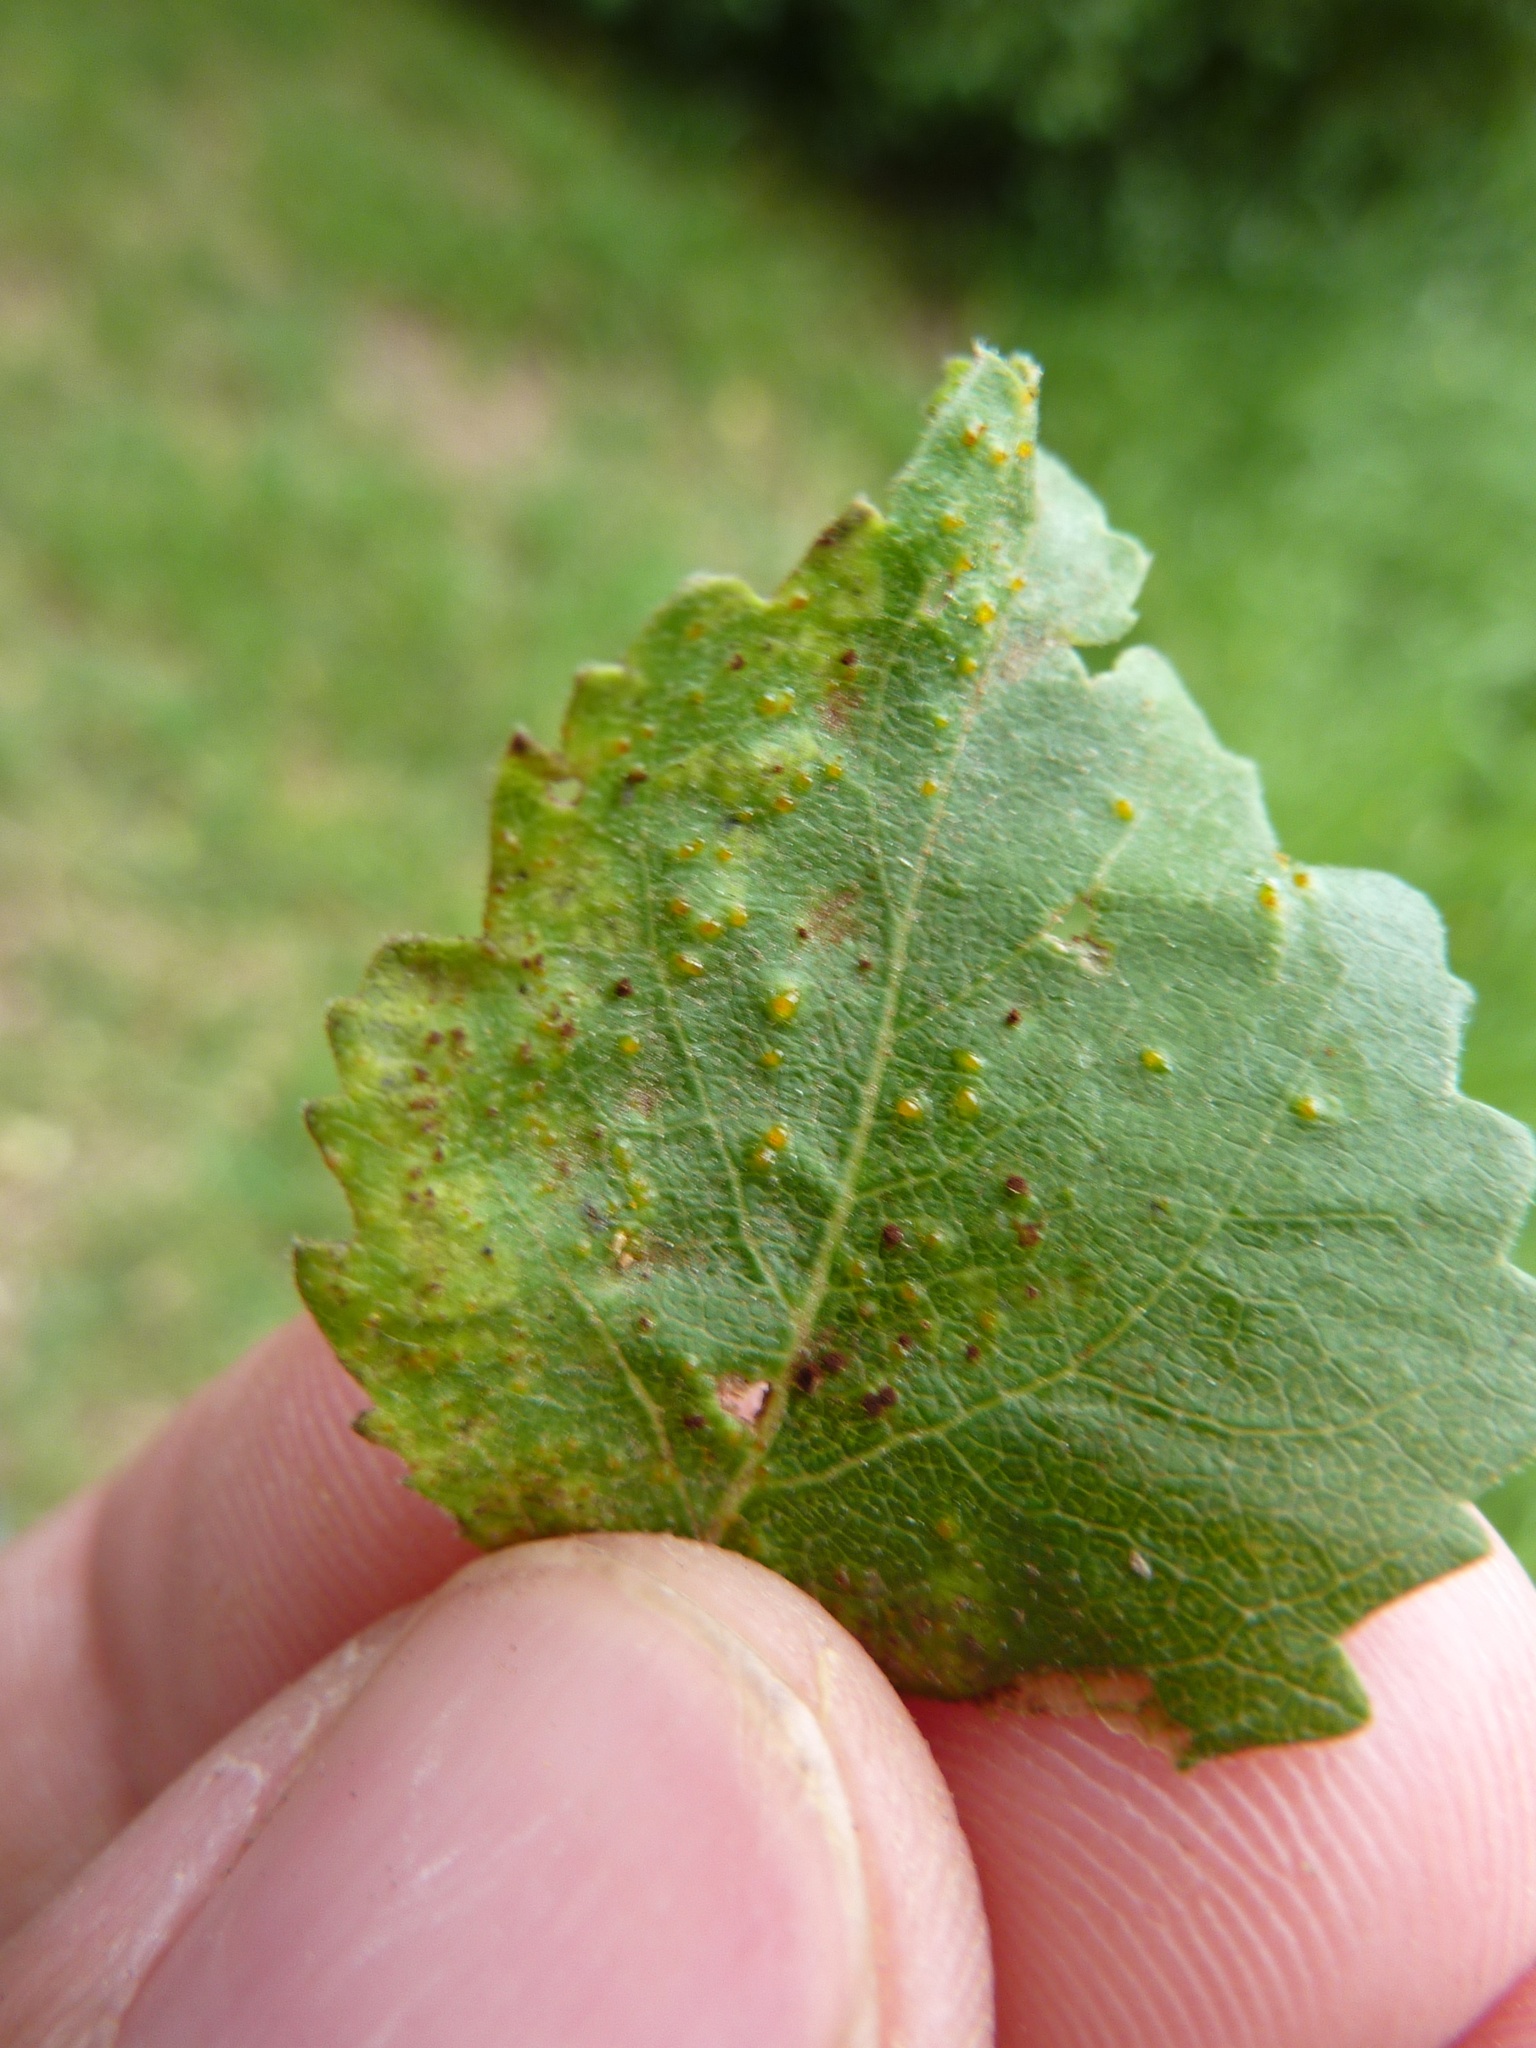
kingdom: Plantae
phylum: Tracheophyta
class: Magnoliopsida
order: Malvales
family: Malvaceae
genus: Plagianthus
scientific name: Plagianthus regius
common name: Manatu
